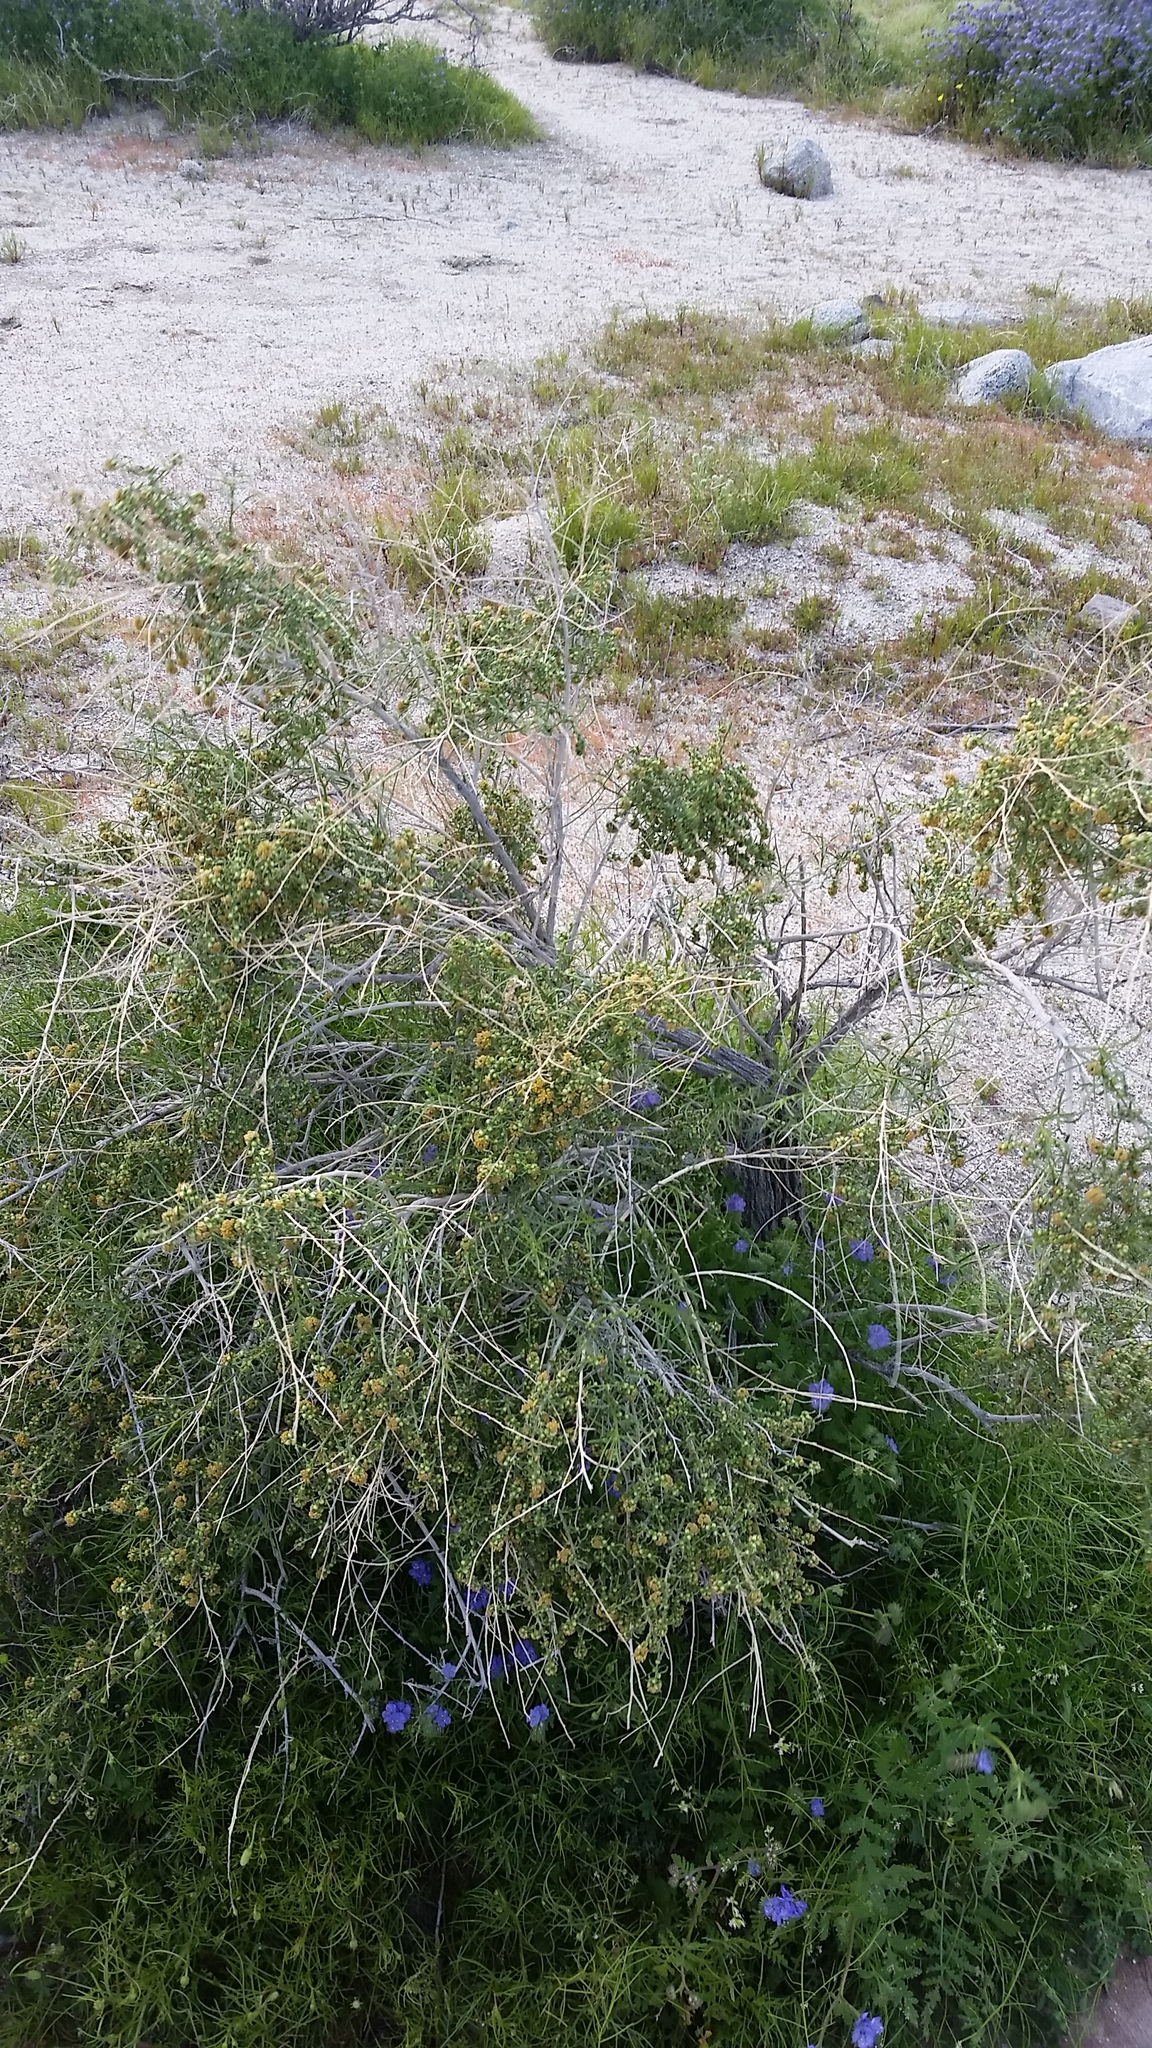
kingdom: Plantae
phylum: Tracheophyta
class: Magnoliopsida
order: Asterales
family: Asteraceae
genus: Ambrosia
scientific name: Ambrosia salsola
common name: Burrobrush
